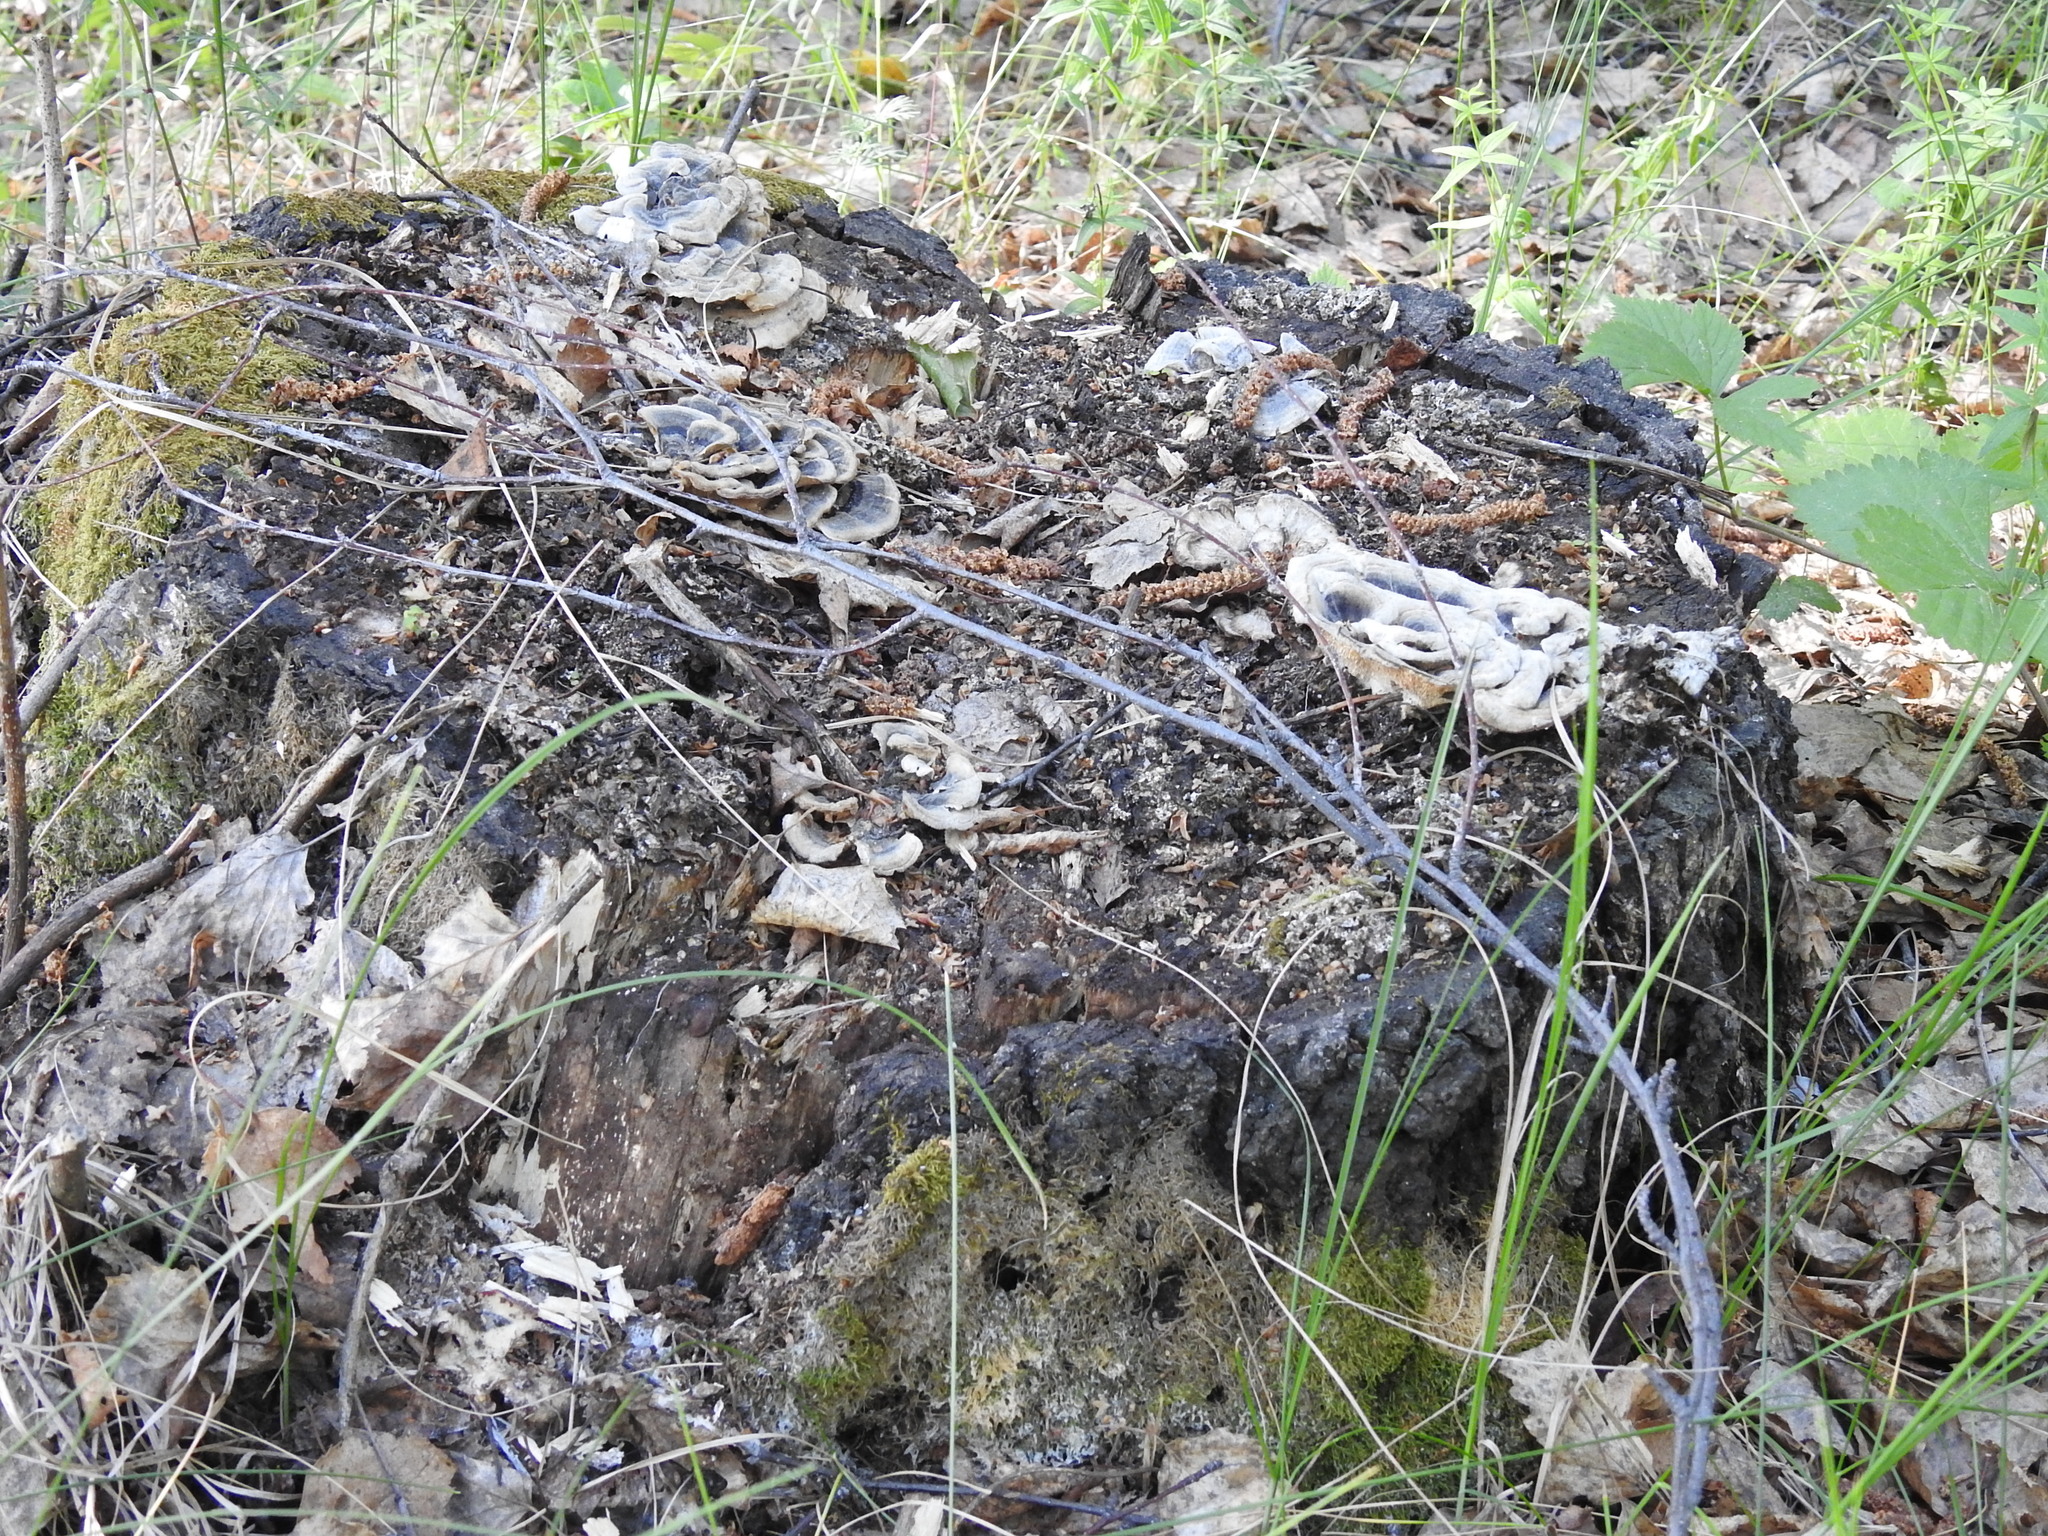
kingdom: Fungi
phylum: Basidiomycota
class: Agaricomycetes
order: Polyporales
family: Polyporaceae
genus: Trametes
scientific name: Trametes versicolor
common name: Turkeytail
